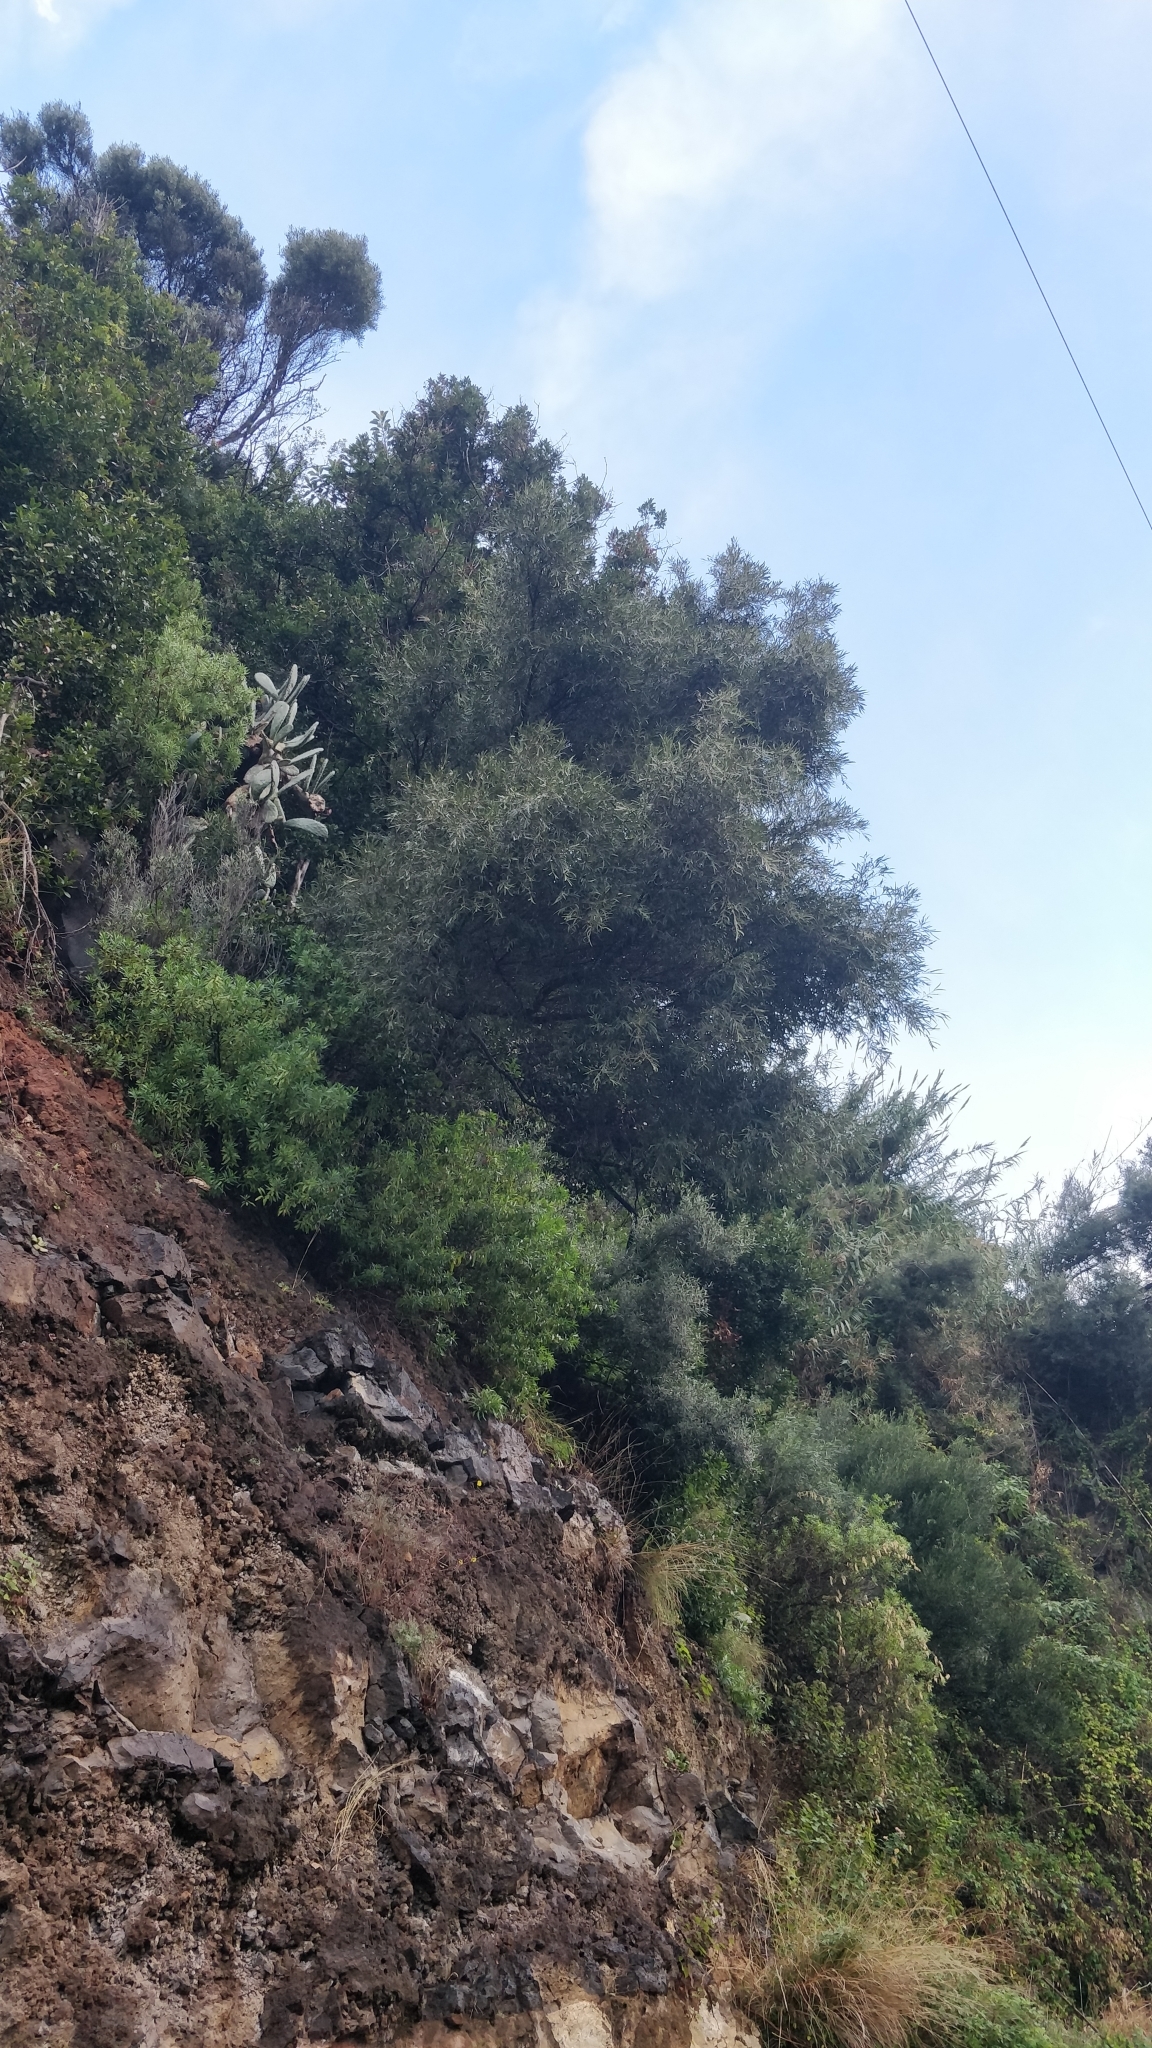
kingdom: Plantae
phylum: Tracheophyta
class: Magnoliopsida
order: Lamiales
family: Oleaceae
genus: Olea
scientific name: Olea europaea
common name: Olive
